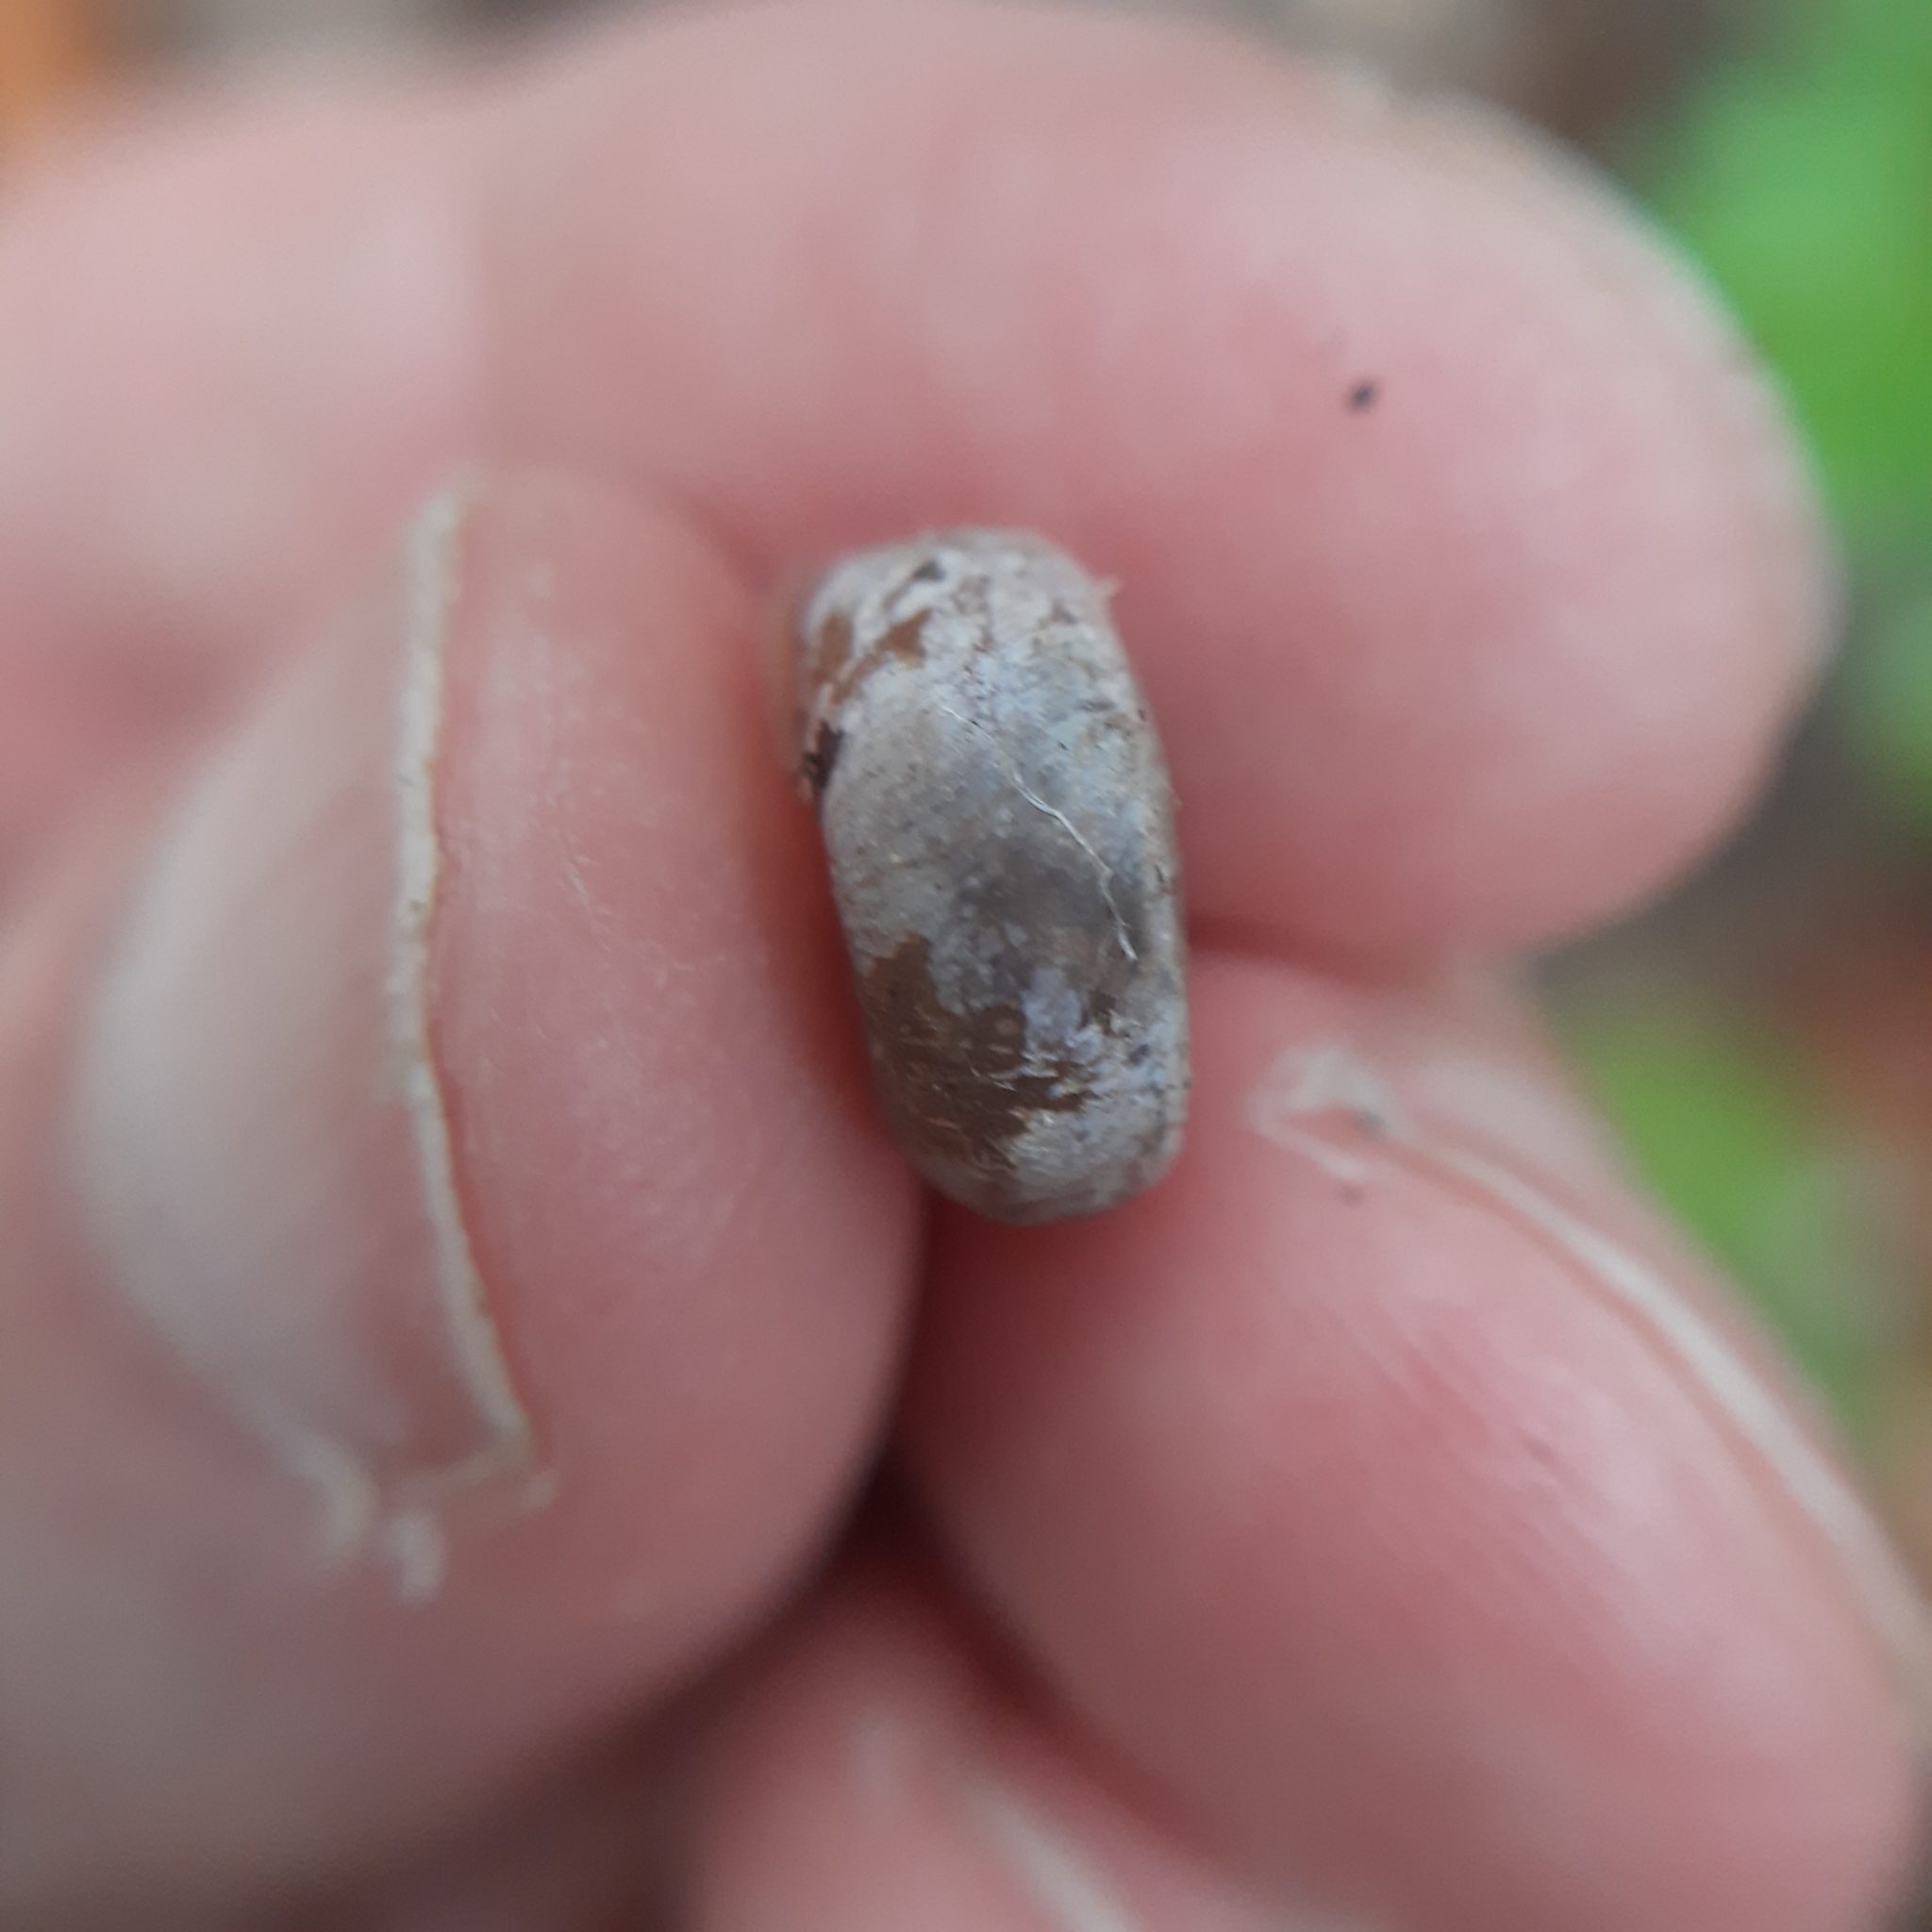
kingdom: Animalia
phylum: Mollusca
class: Gastropoda
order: Stylommatophora
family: Helicodontidae
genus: Helicodonta
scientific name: Helicodonta obvoluta
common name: Cheese snail
